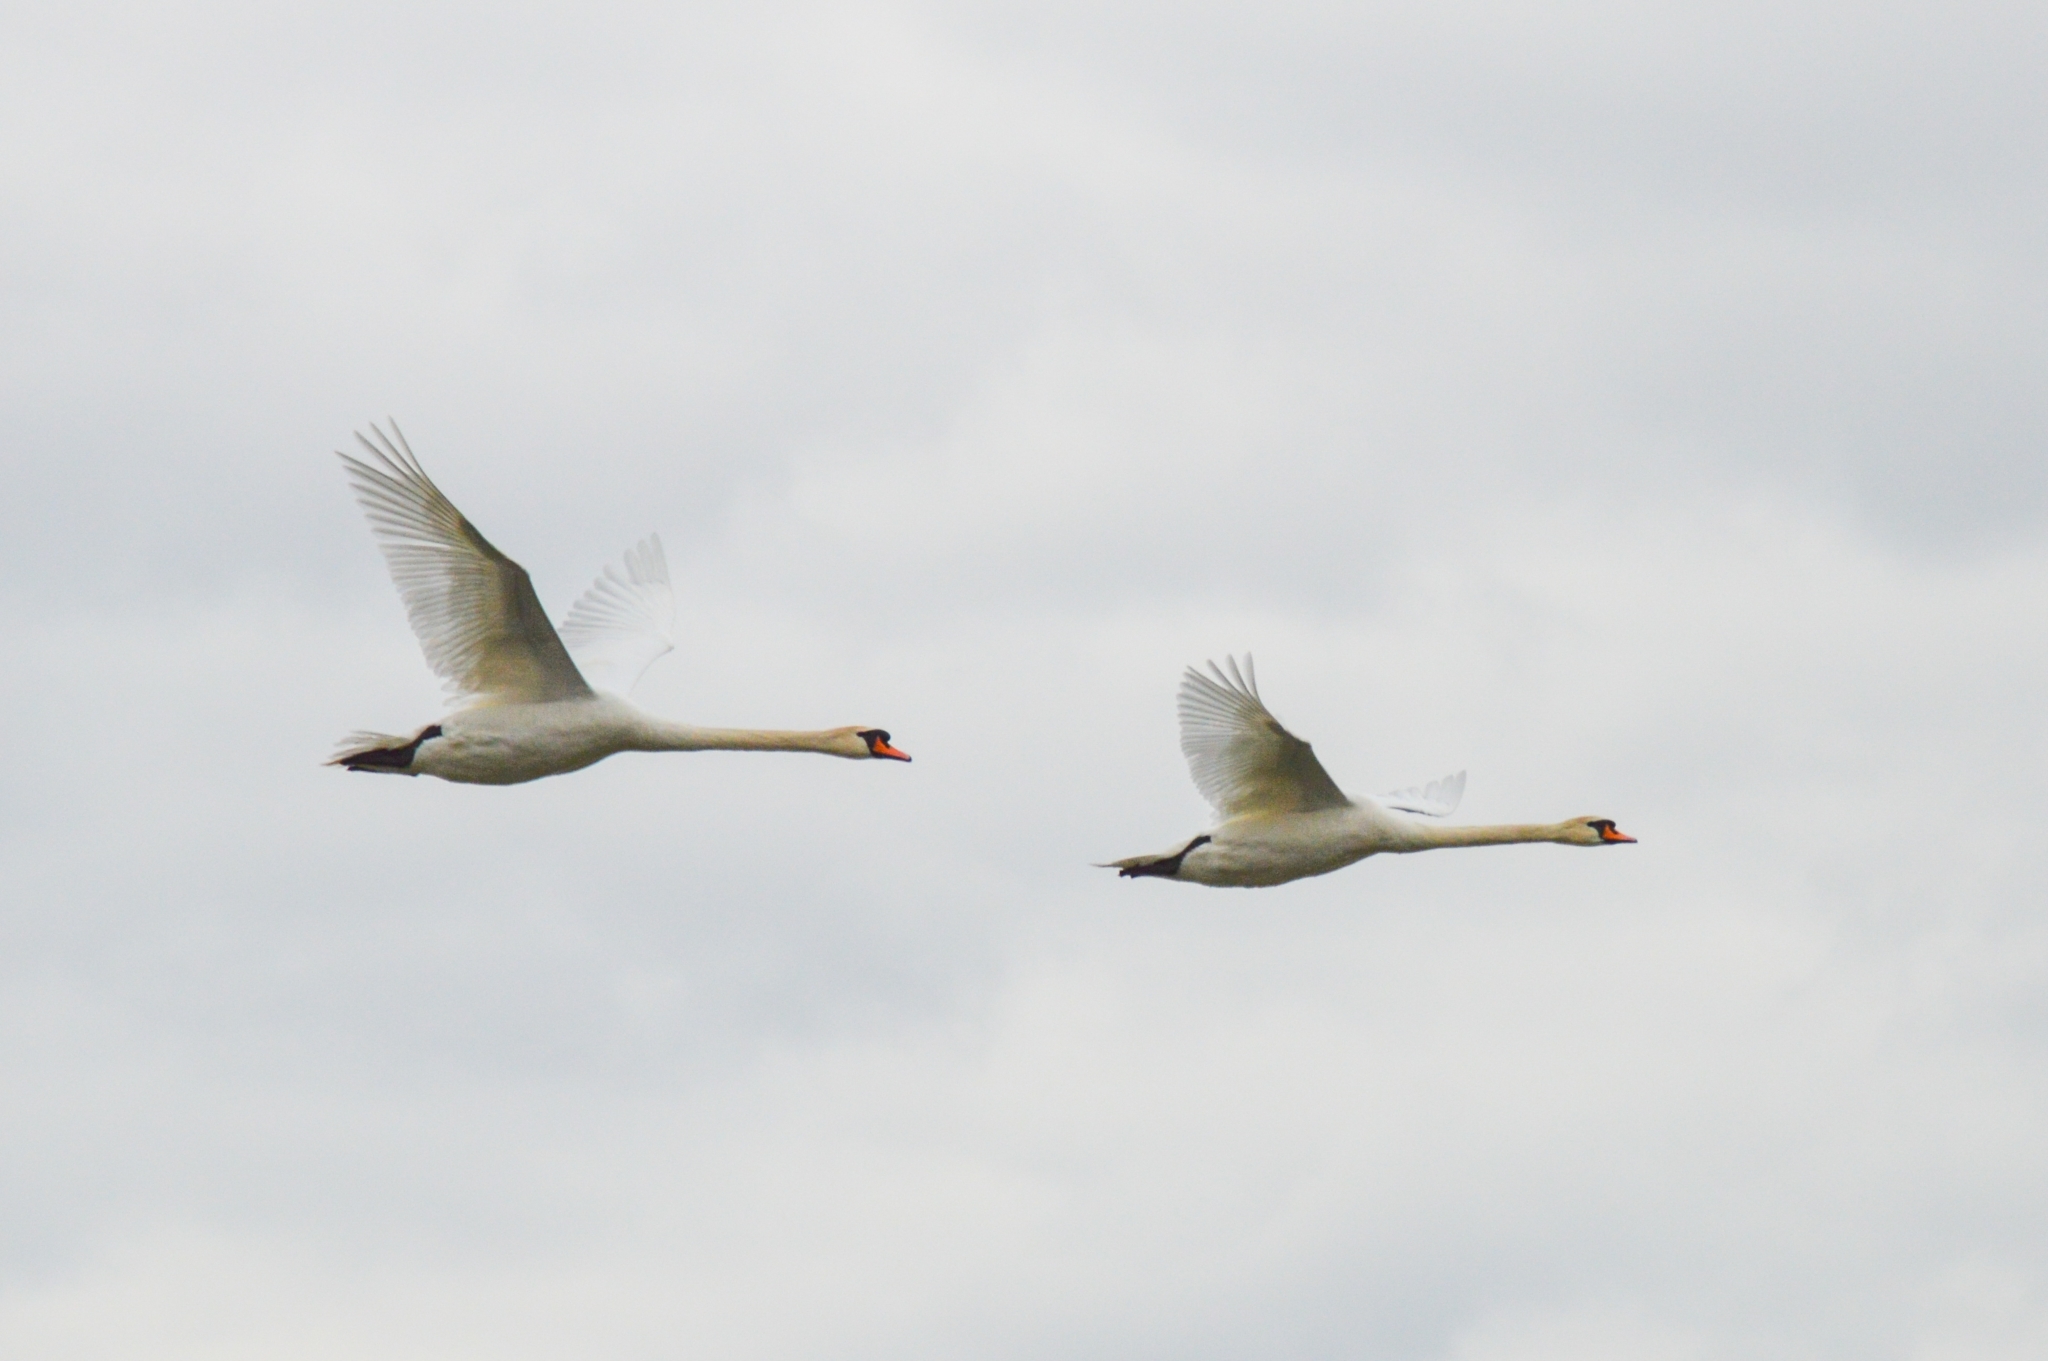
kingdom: Animalia
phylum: Chordata
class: Aves
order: Anseriformes
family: Anatidae
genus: Cygnus
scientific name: Cygnus olor
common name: Mute swan
